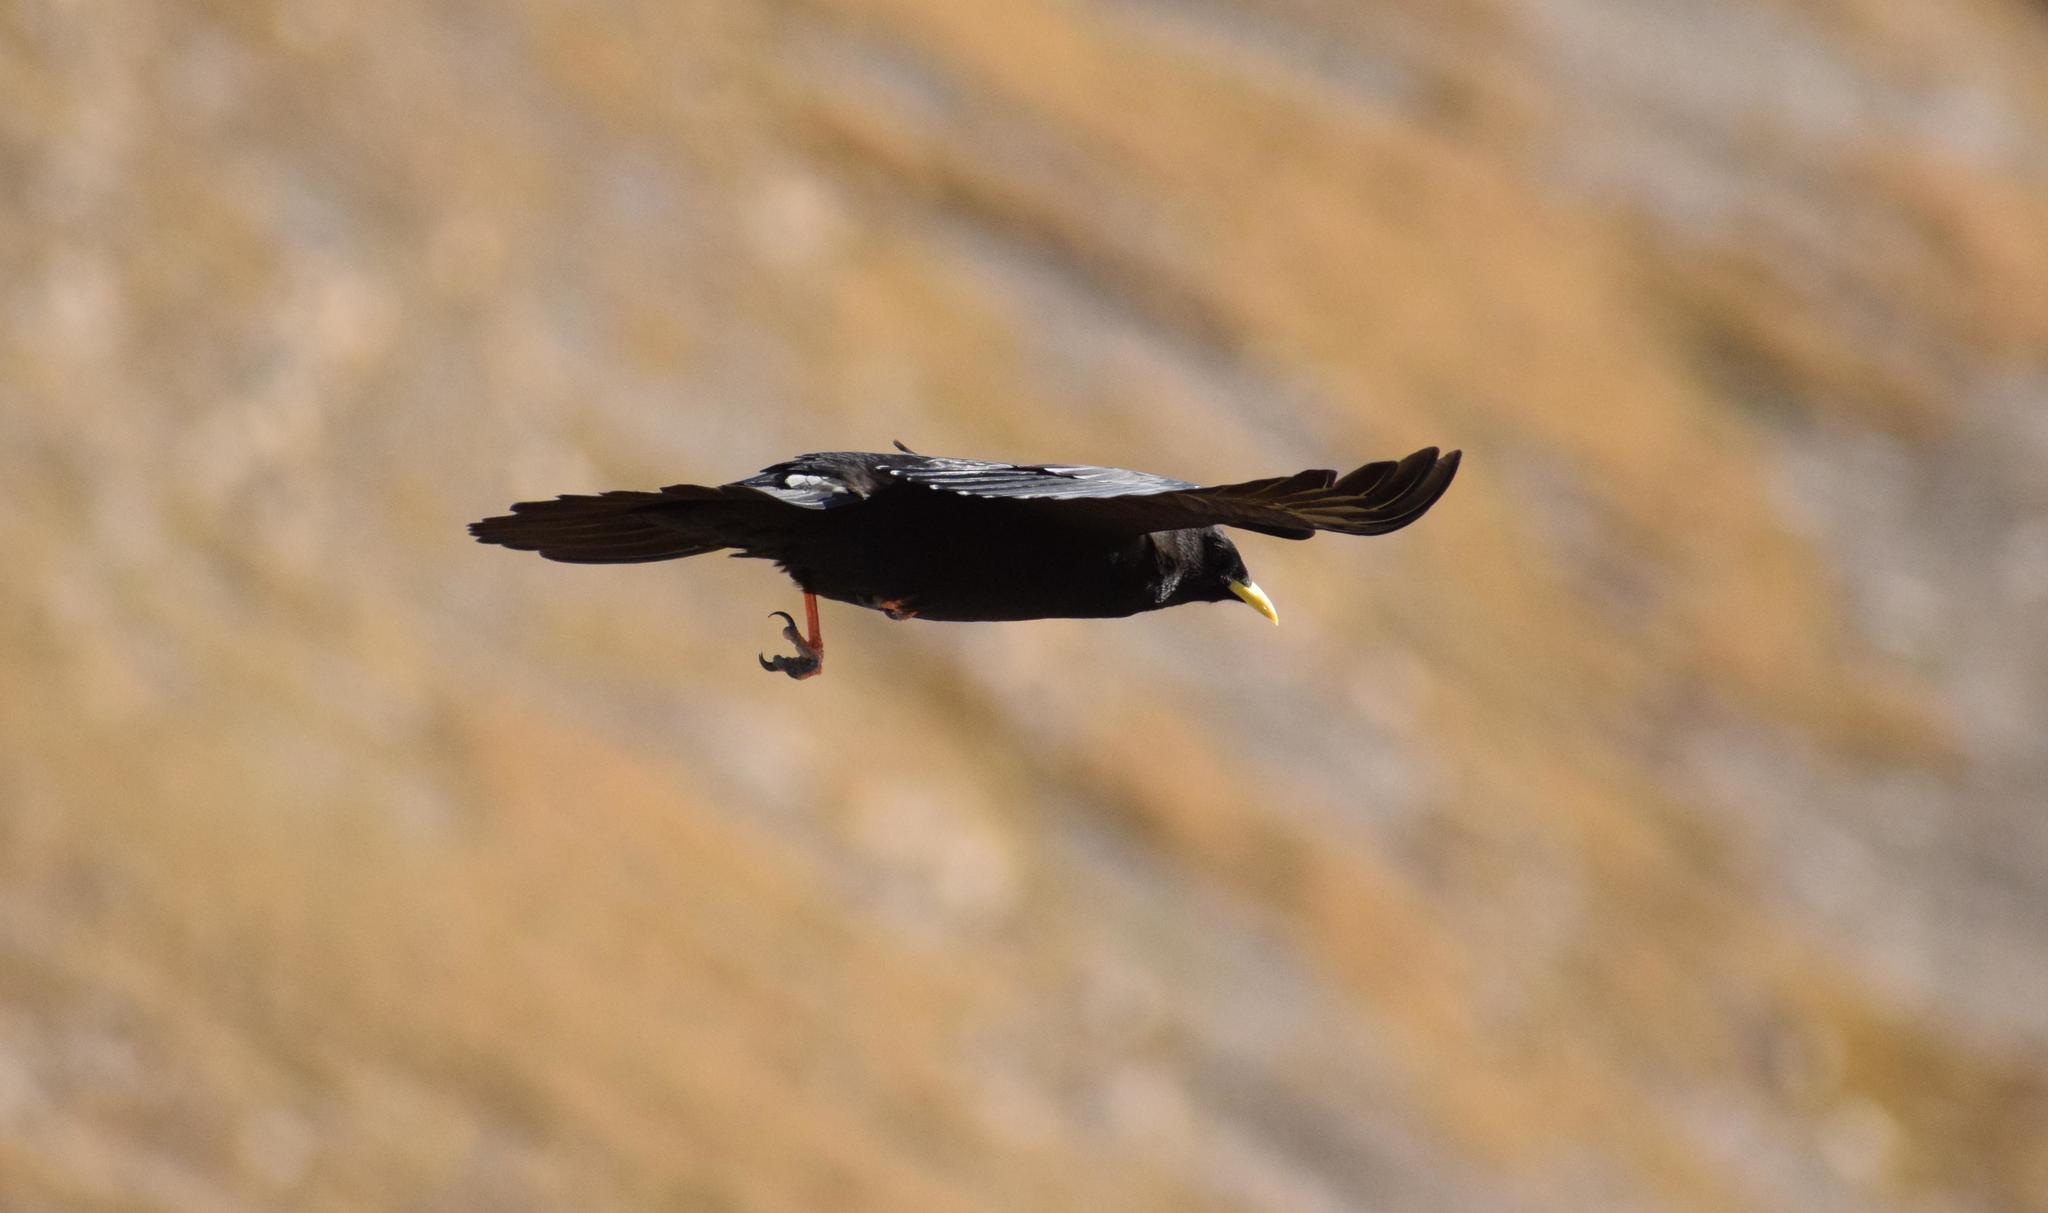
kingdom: Animalia
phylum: Chordata
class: Aves
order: Passeriformes
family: Corvidae
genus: Pyrrhocorax
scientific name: Pyrrhocorax graculus
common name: Alpine chough
